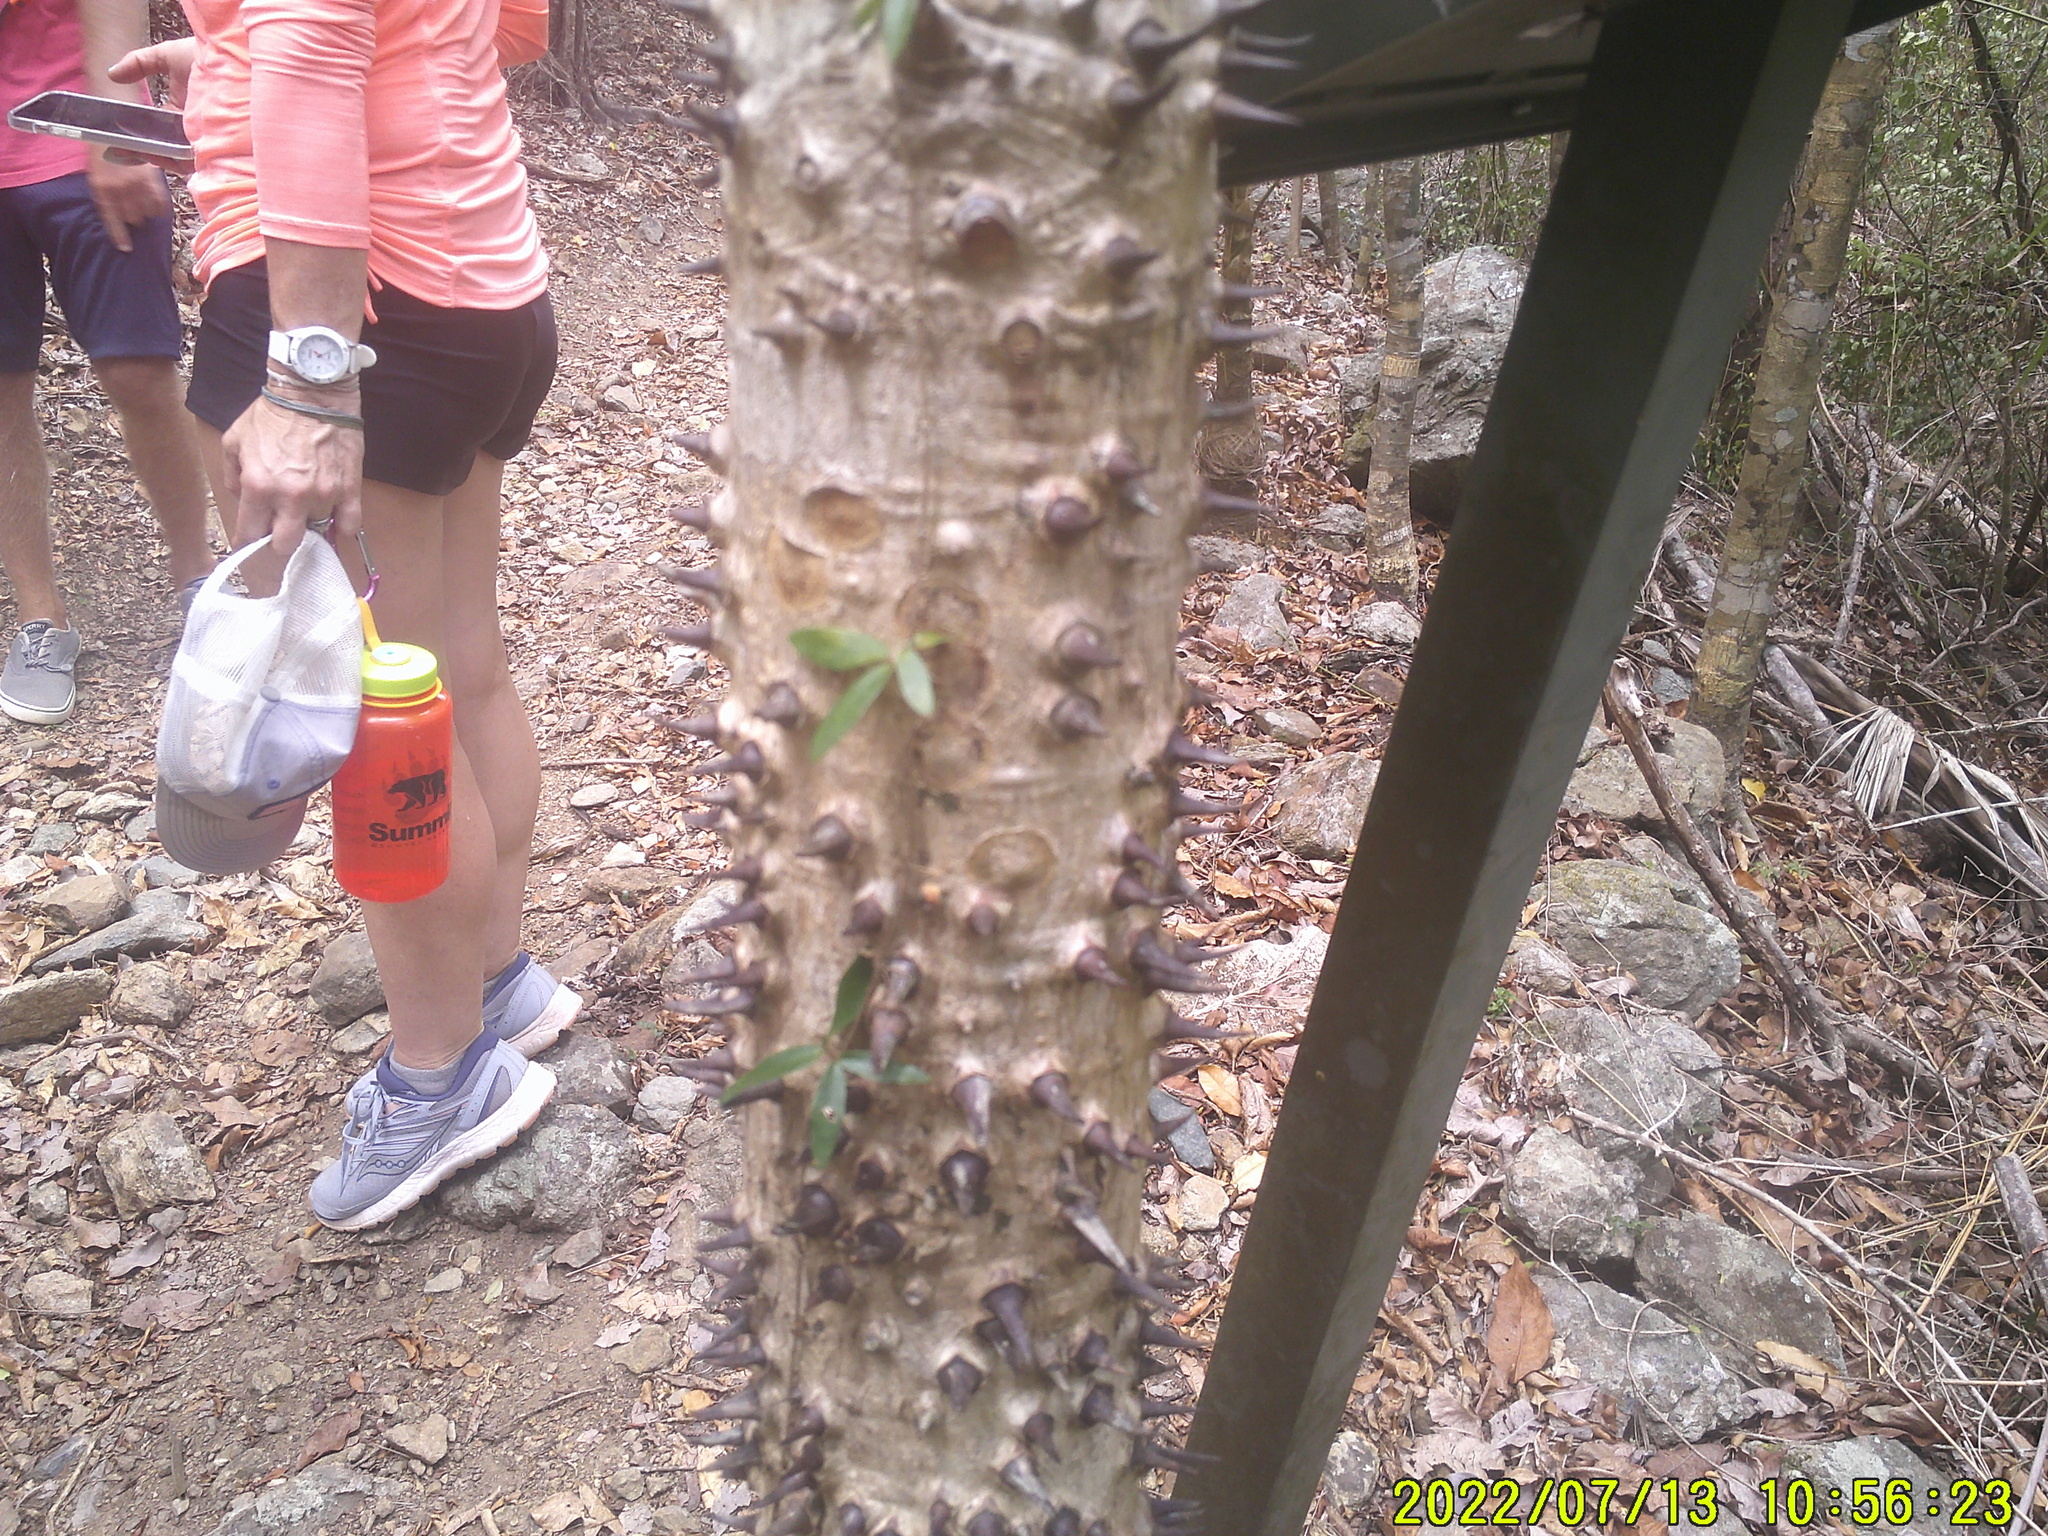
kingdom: Plantae
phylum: Tracheophyta
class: Magnoliopsida
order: Malpighiales
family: Euphorbiaceae
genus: Hura
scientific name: Hura crepitans
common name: Sandboxtree
